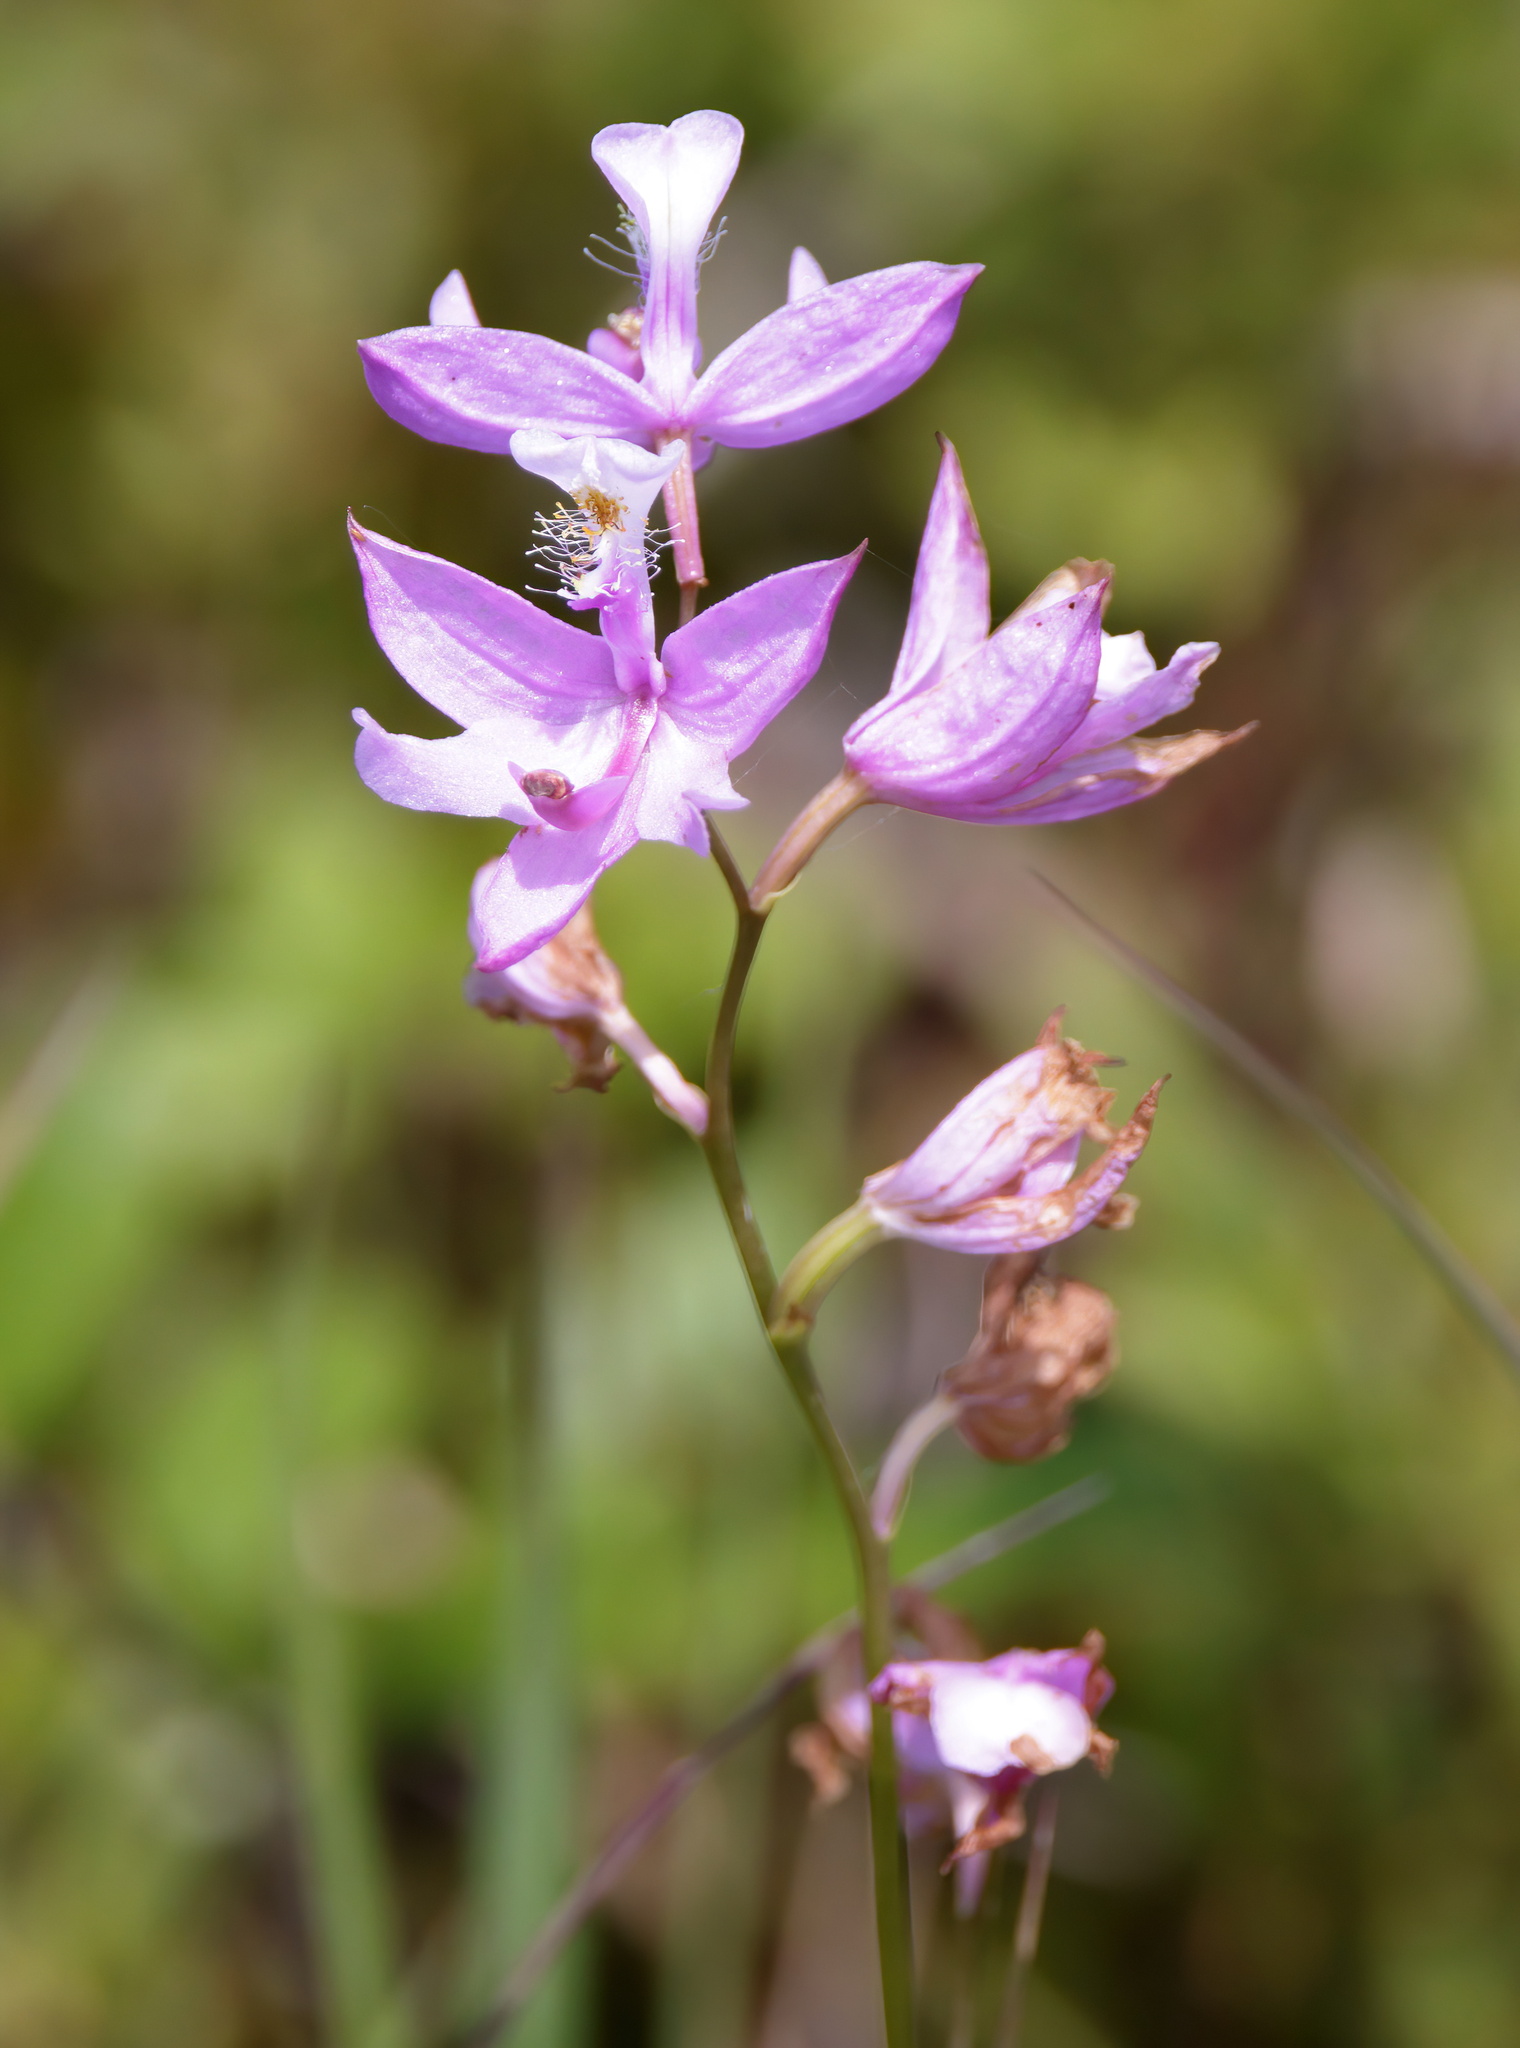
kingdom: Plantae
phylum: Tracheophyta
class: Liliopsida
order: Asparagales
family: Orchidaceae
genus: Calopogon
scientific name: Calopogon tuberosus
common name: Grass-pink
